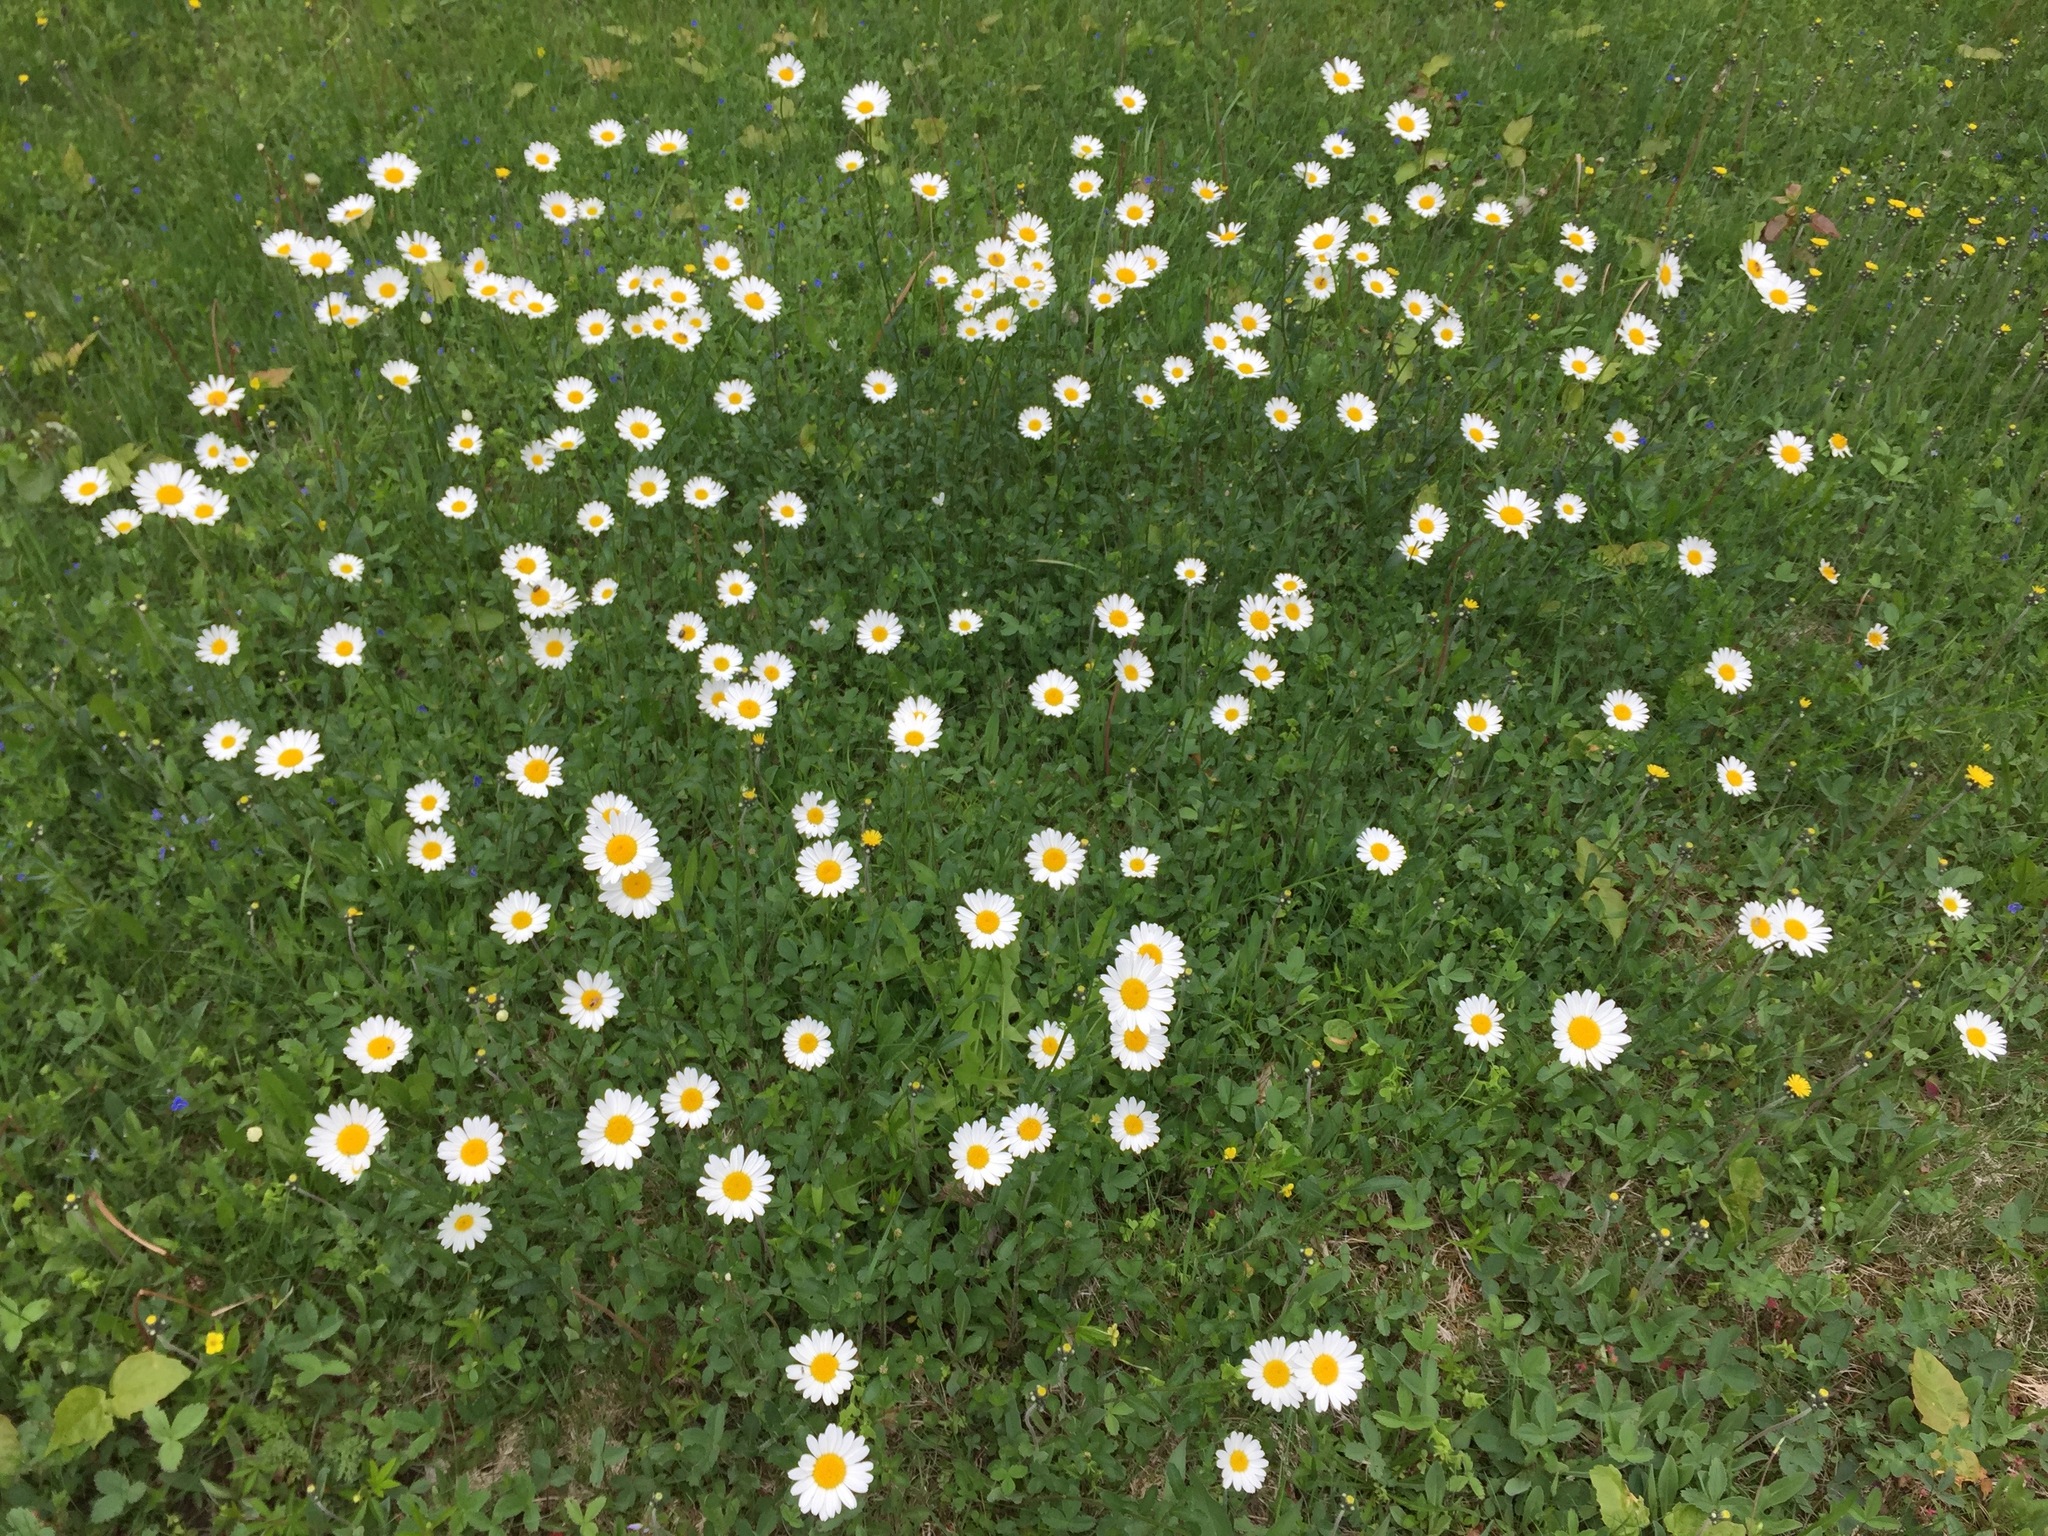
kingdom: Plantae
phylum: Tracheophyta
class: Magnoliopsida
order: Asterales
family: Asteraceae
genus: Leucanthemum
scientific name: Leucanthemum vulgare
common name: Oxeye daisy
